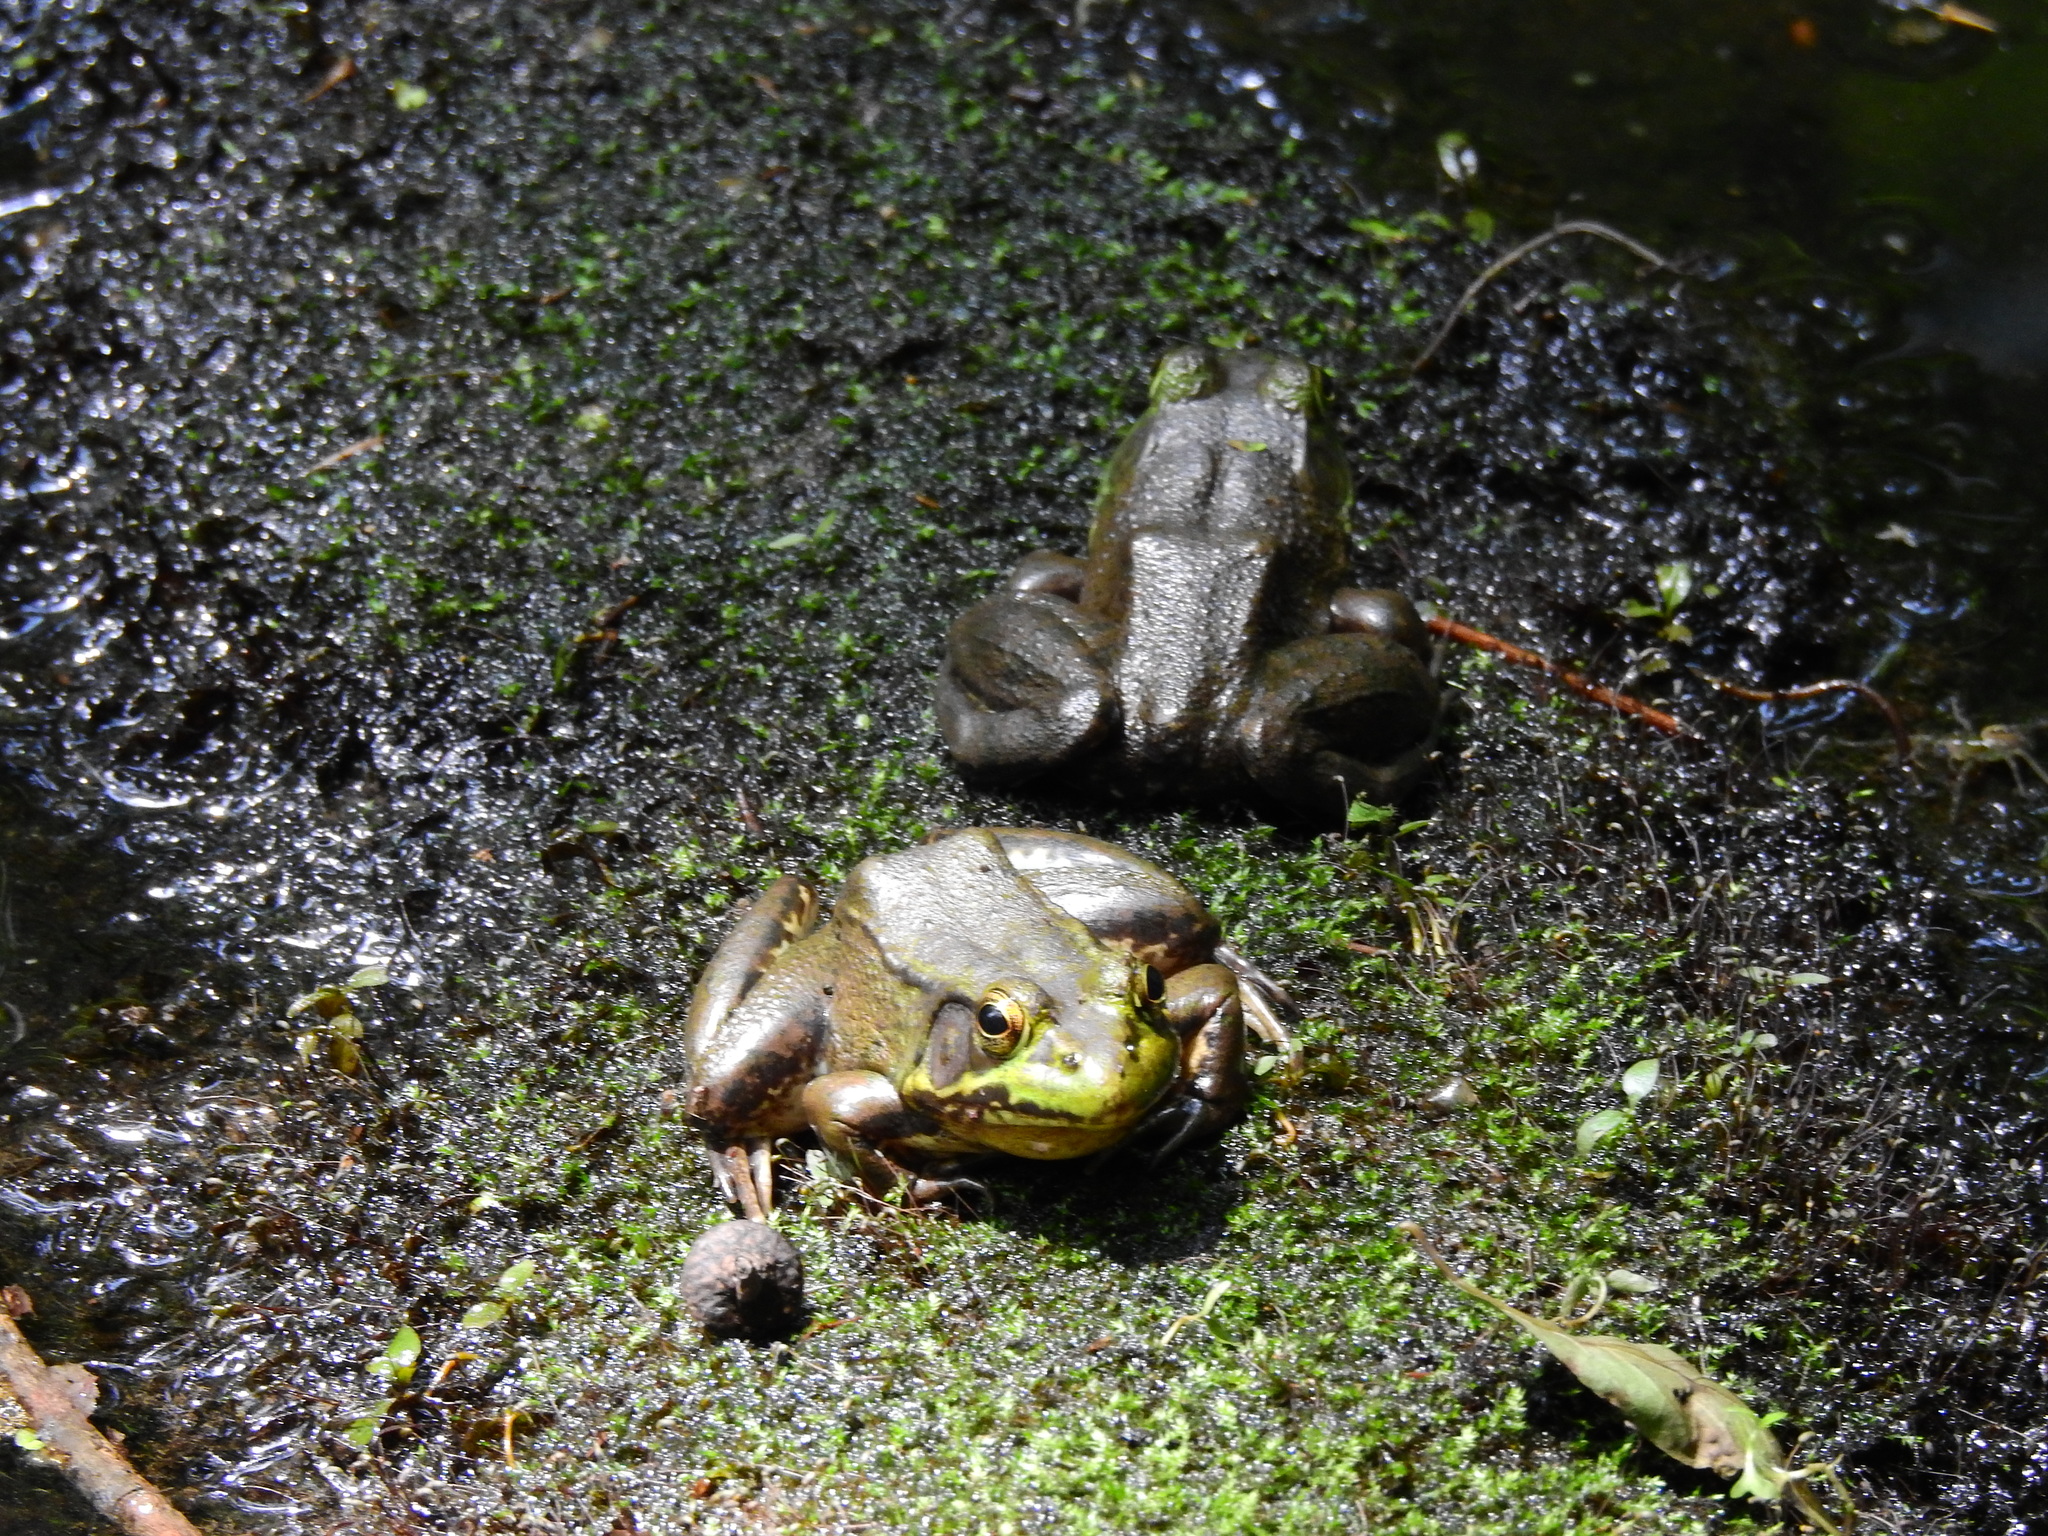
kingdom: Animalia
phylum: Chordata
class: Amphibia
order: Anura
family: Ranidae
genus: Lithobates
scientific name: Lithobates clamitans
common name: Green frog
